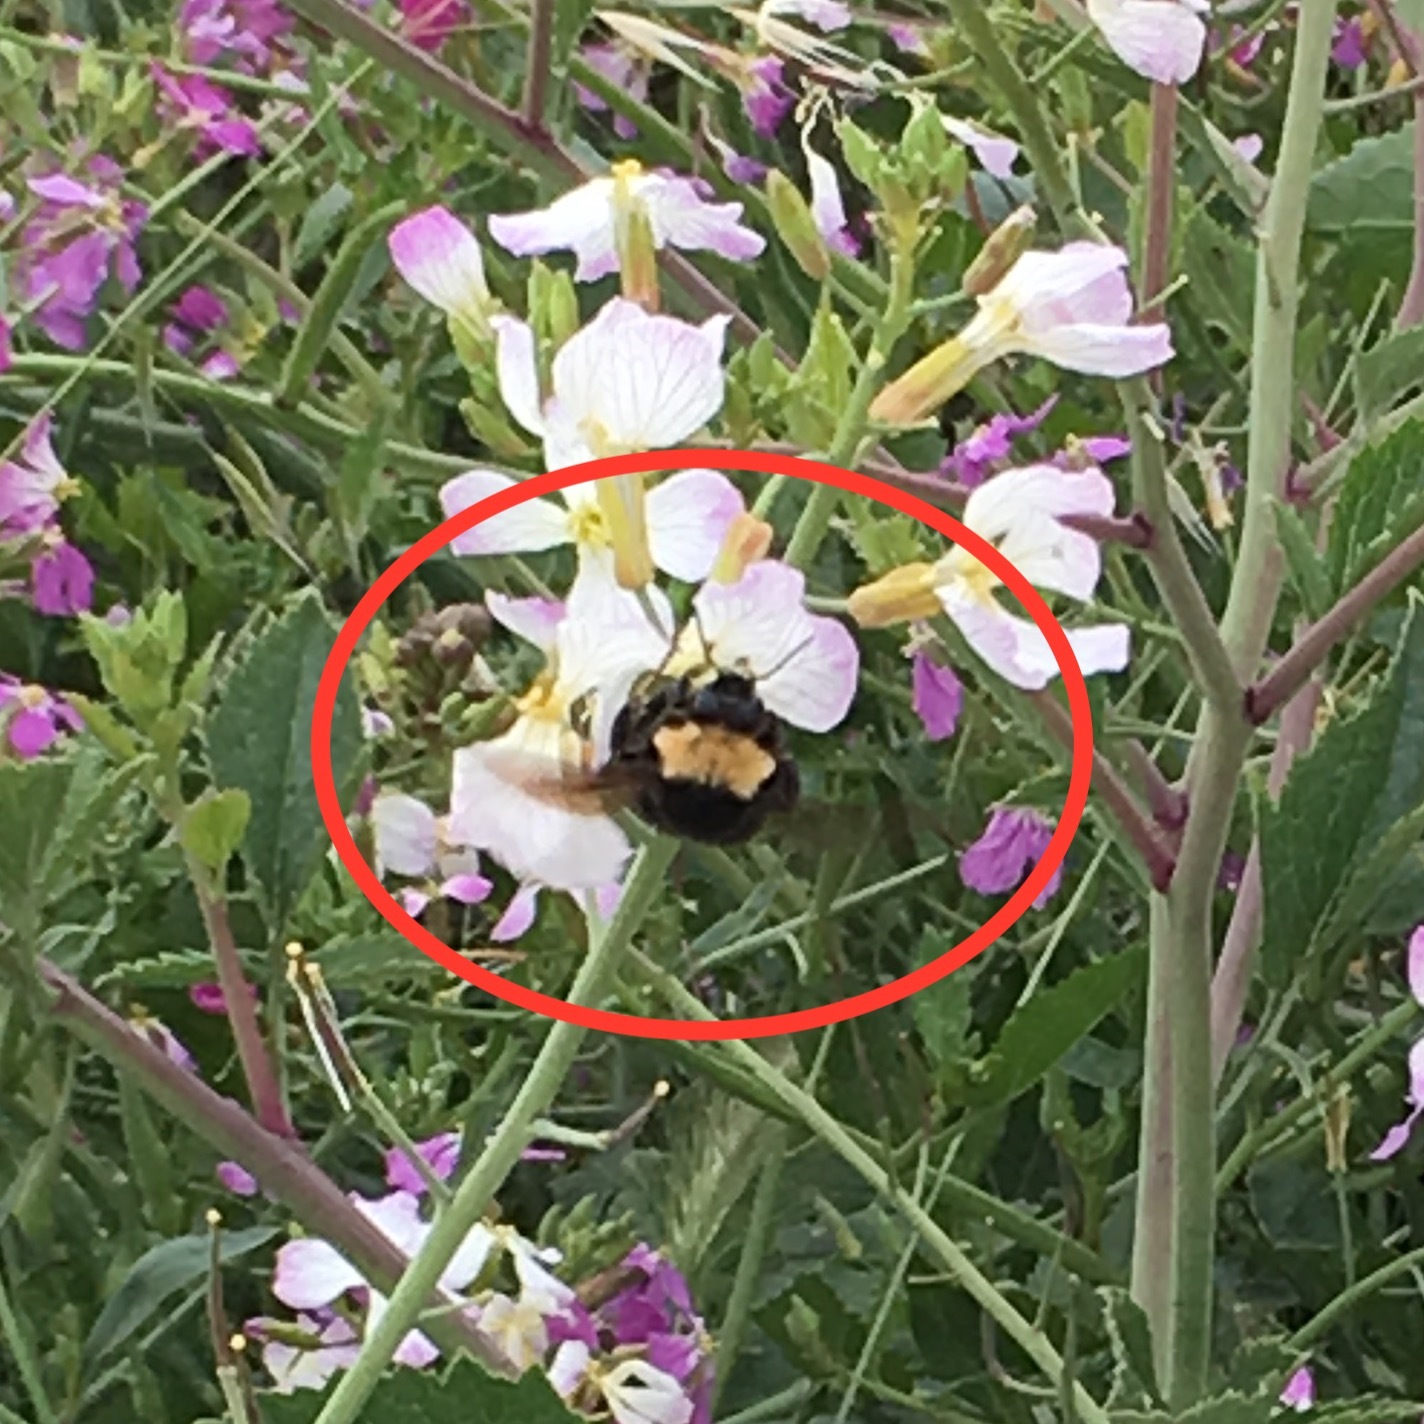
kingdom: Animalia
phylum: Arthropoda
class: Insecta
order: Hymenoptera
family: Apidae
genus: Bombus
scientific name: Bombus californicus
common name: California bumble bee
